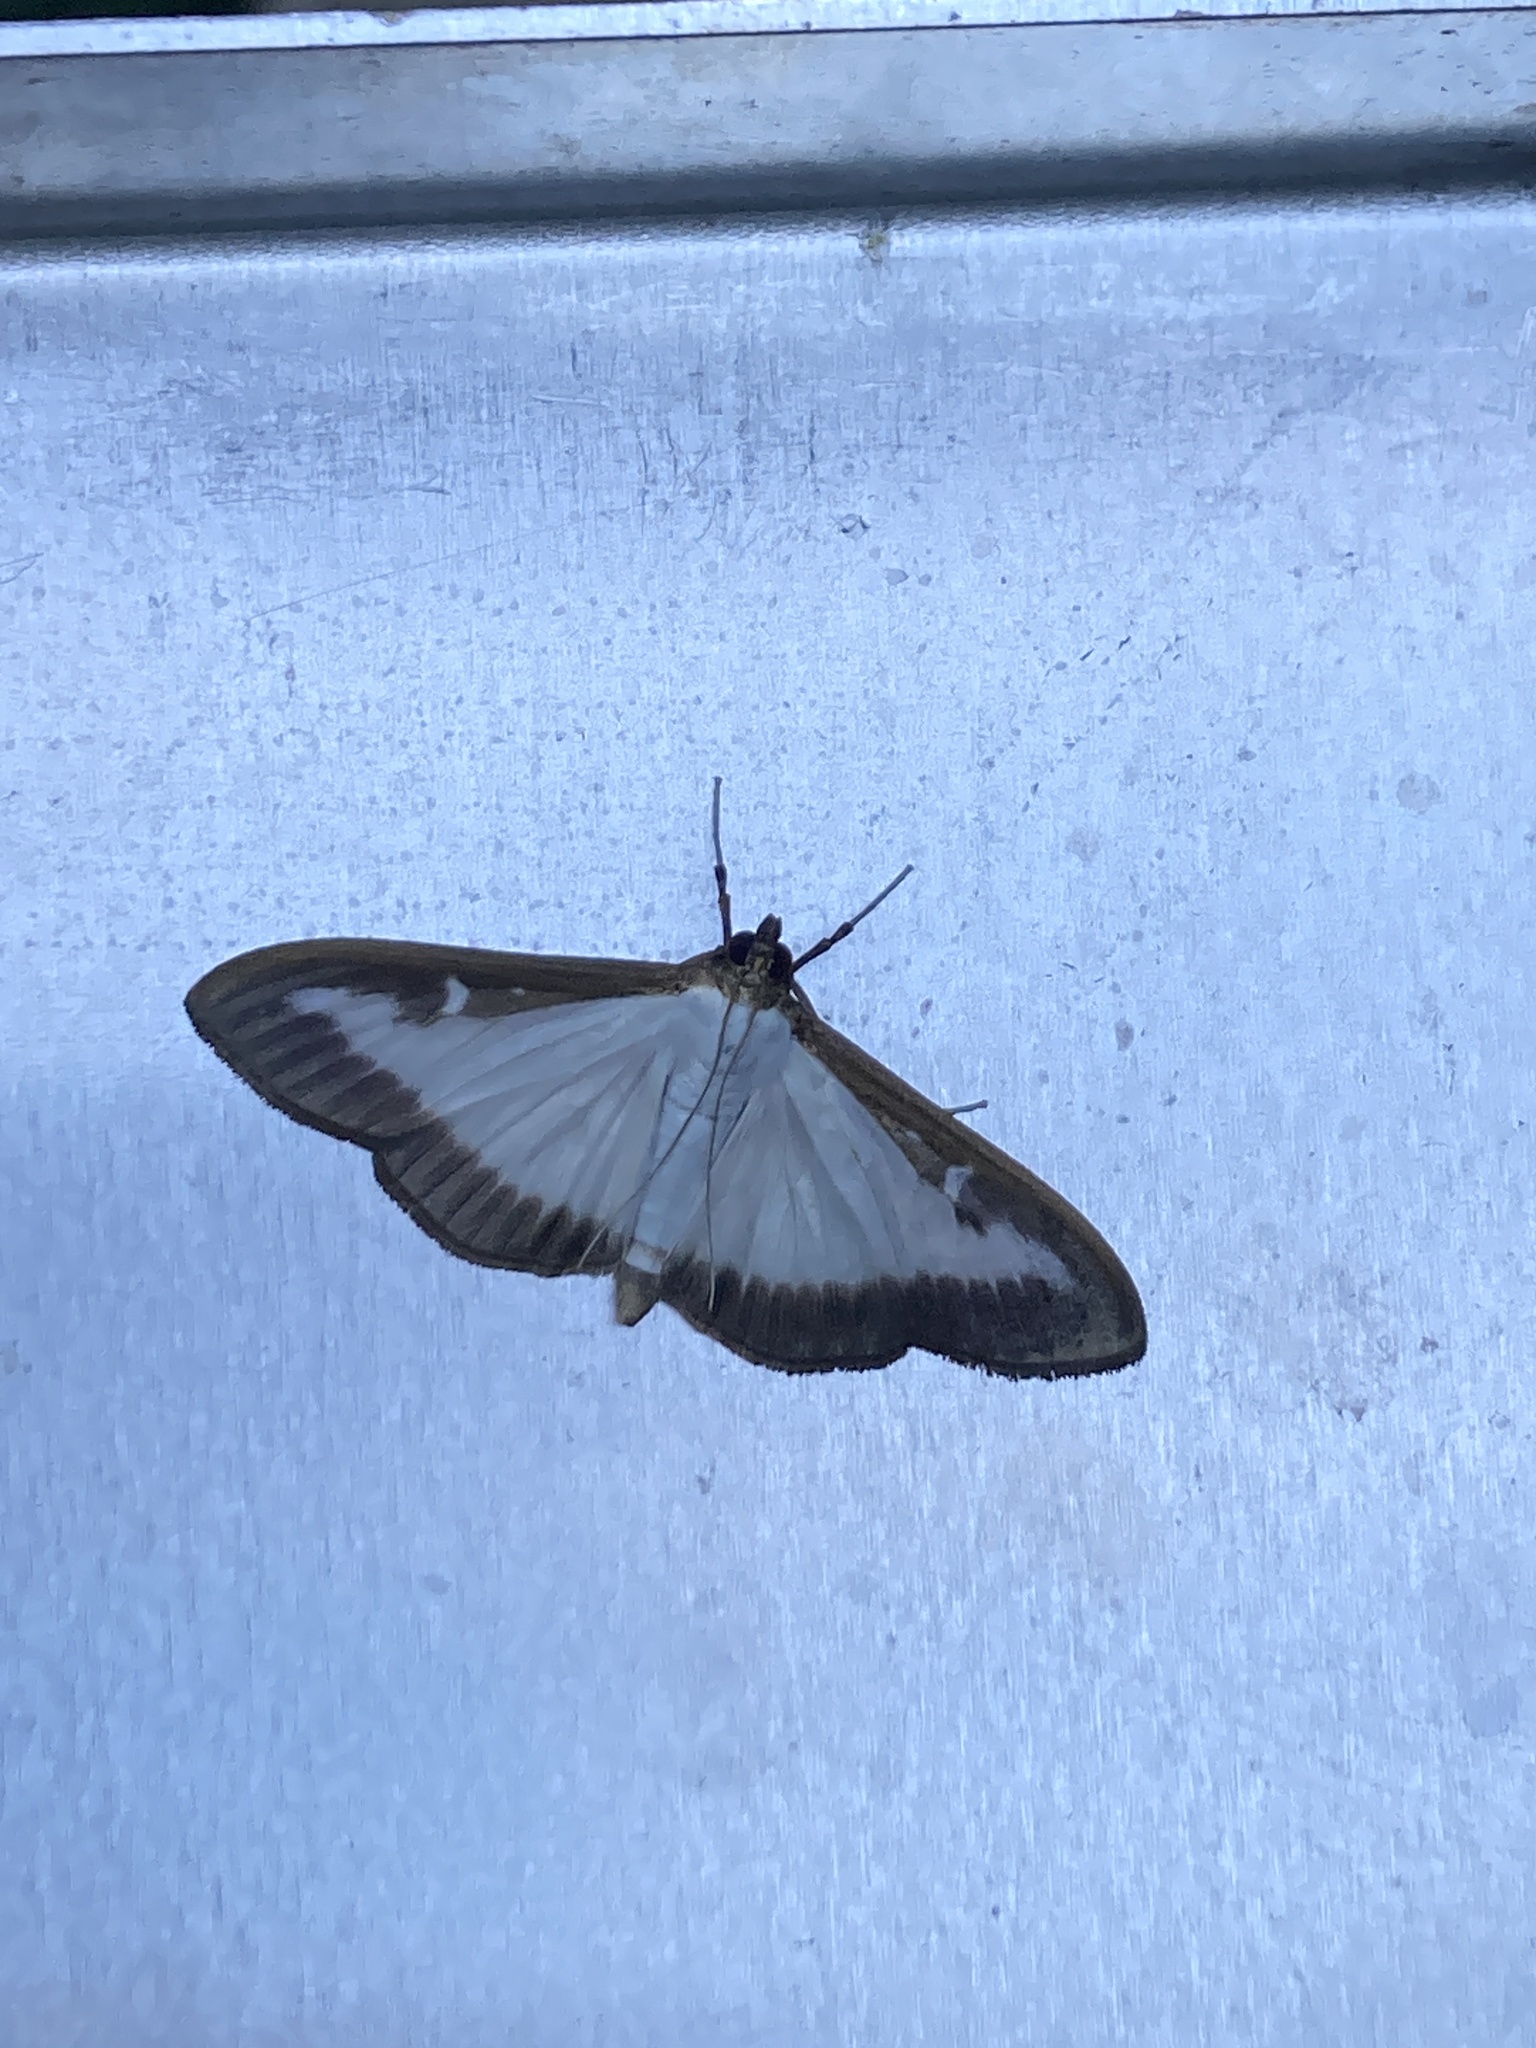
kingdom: Animalia
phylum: Arthropoda
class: Insecta
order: Lepidoptera
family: Crambidae
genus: Cydalima
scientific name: Cydalima perspectalis
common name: Box tree moth
